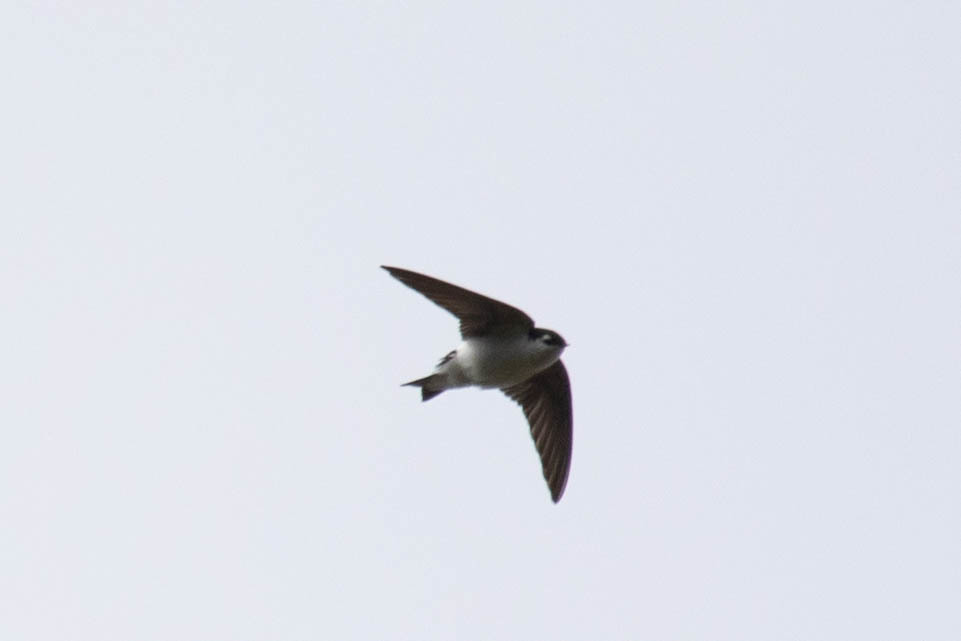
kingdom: Animalia
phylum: Chordata
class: Aves
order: Passeriformes
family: Hirundinidae
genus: Tachycineta
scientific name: Tachycineta thalassina
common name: Violet-green swallow
